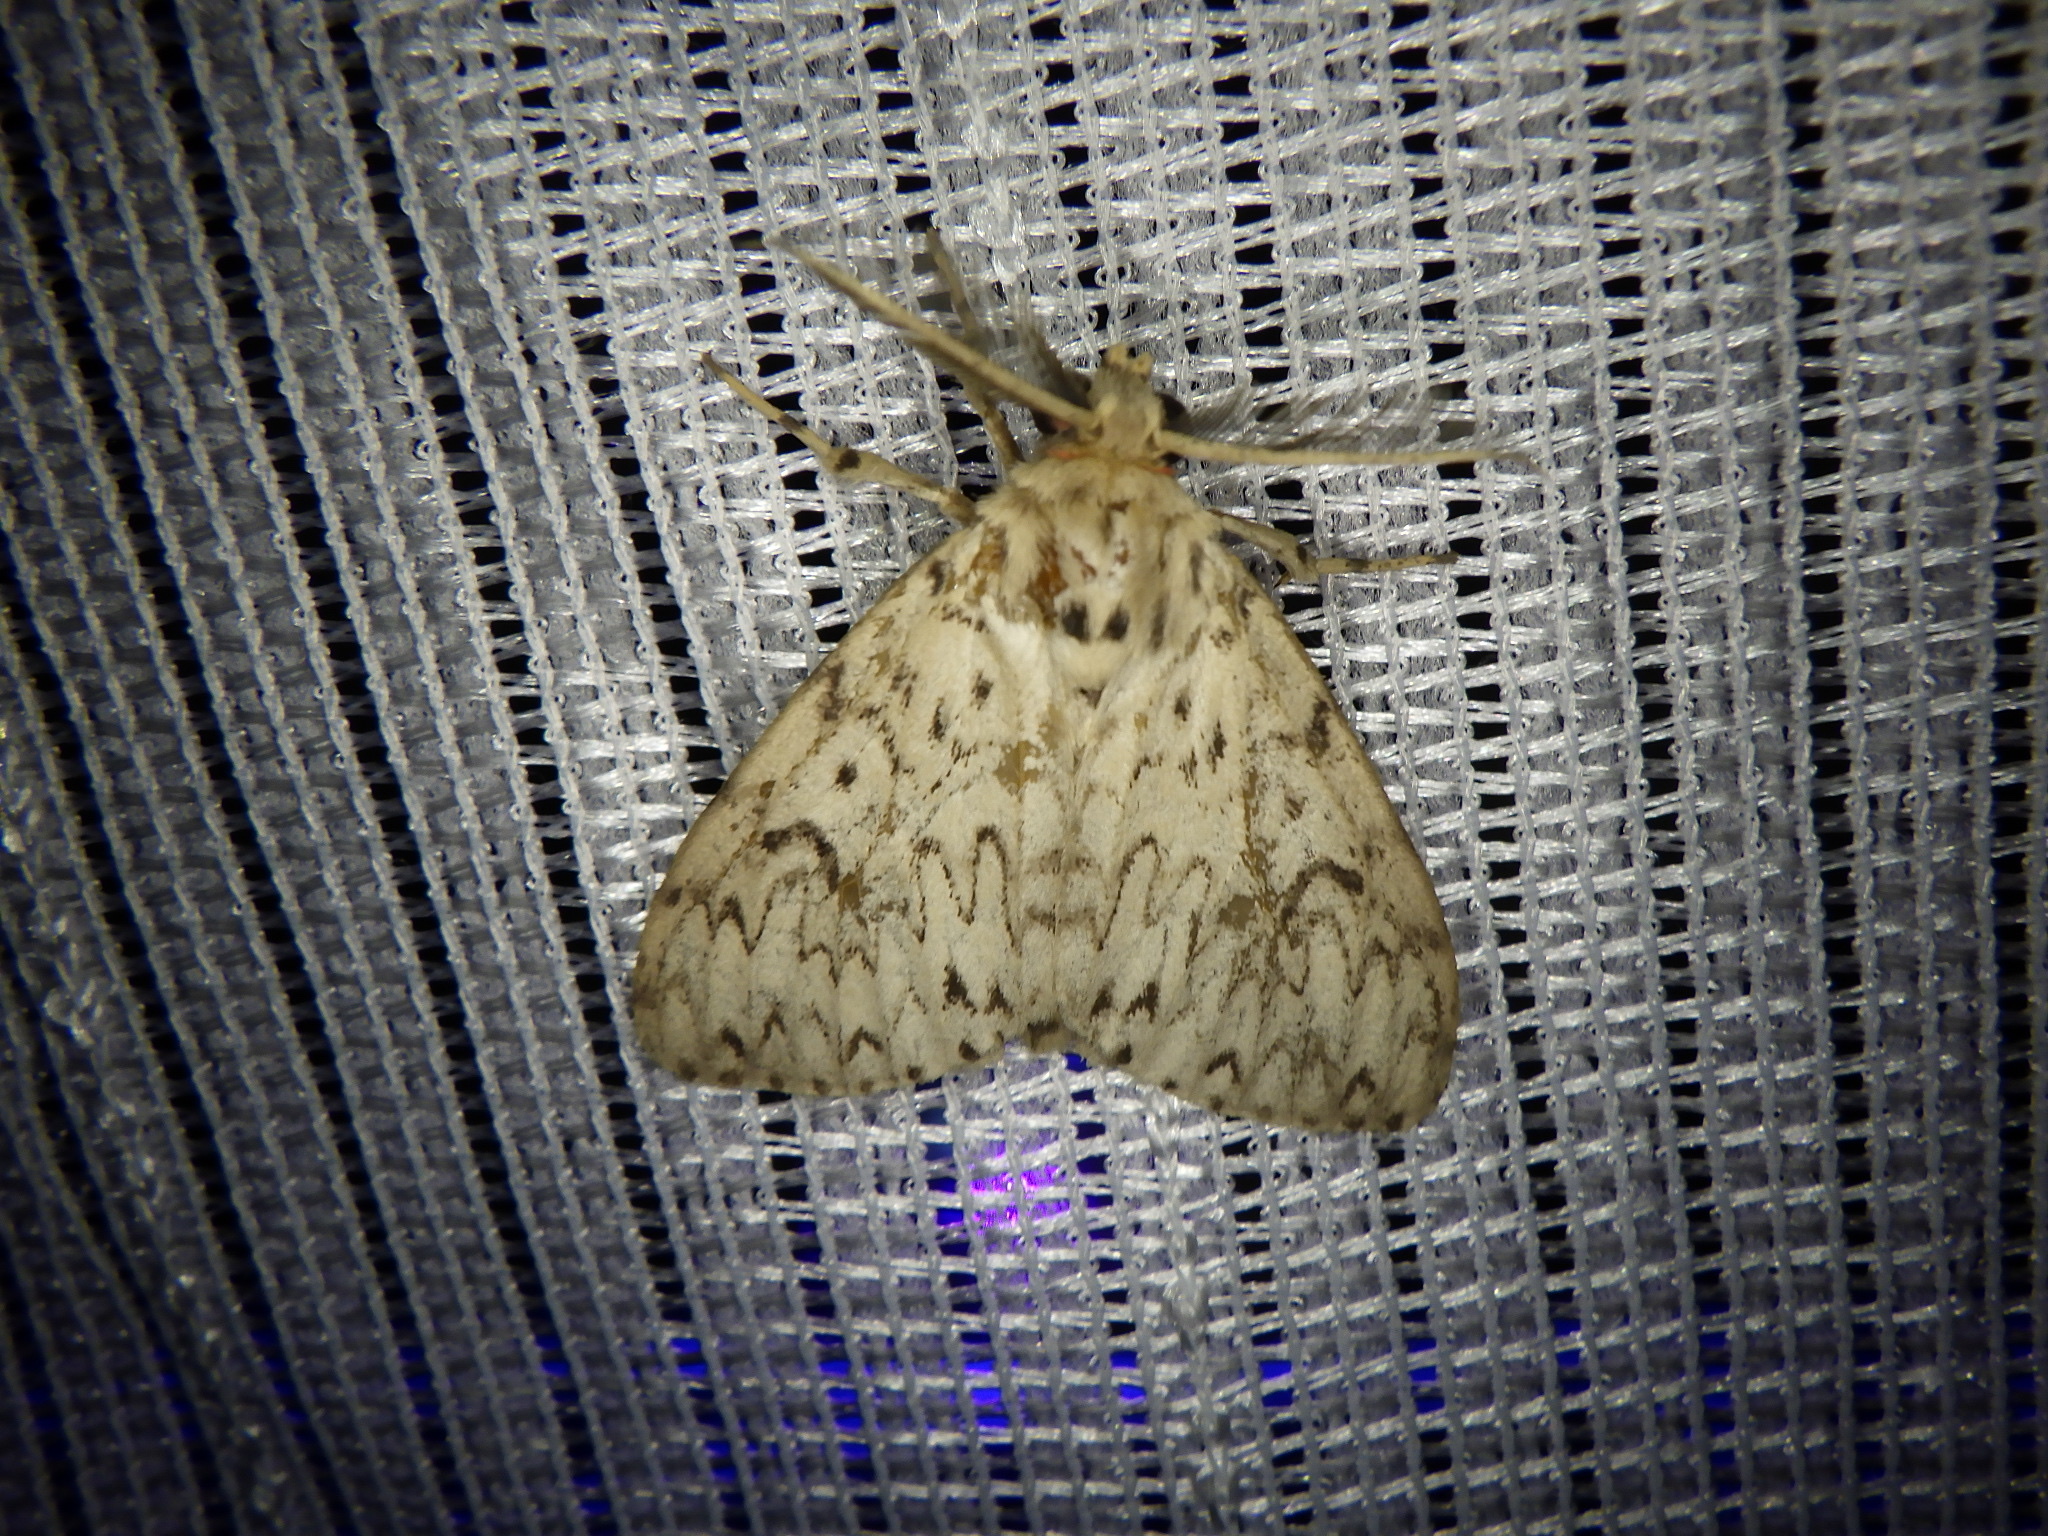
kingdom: Animalia
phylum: Arthropoda
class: Insecta
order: Lepidoptera
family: Erebidae
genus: Lymantria
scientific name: Lymantria minomonis
